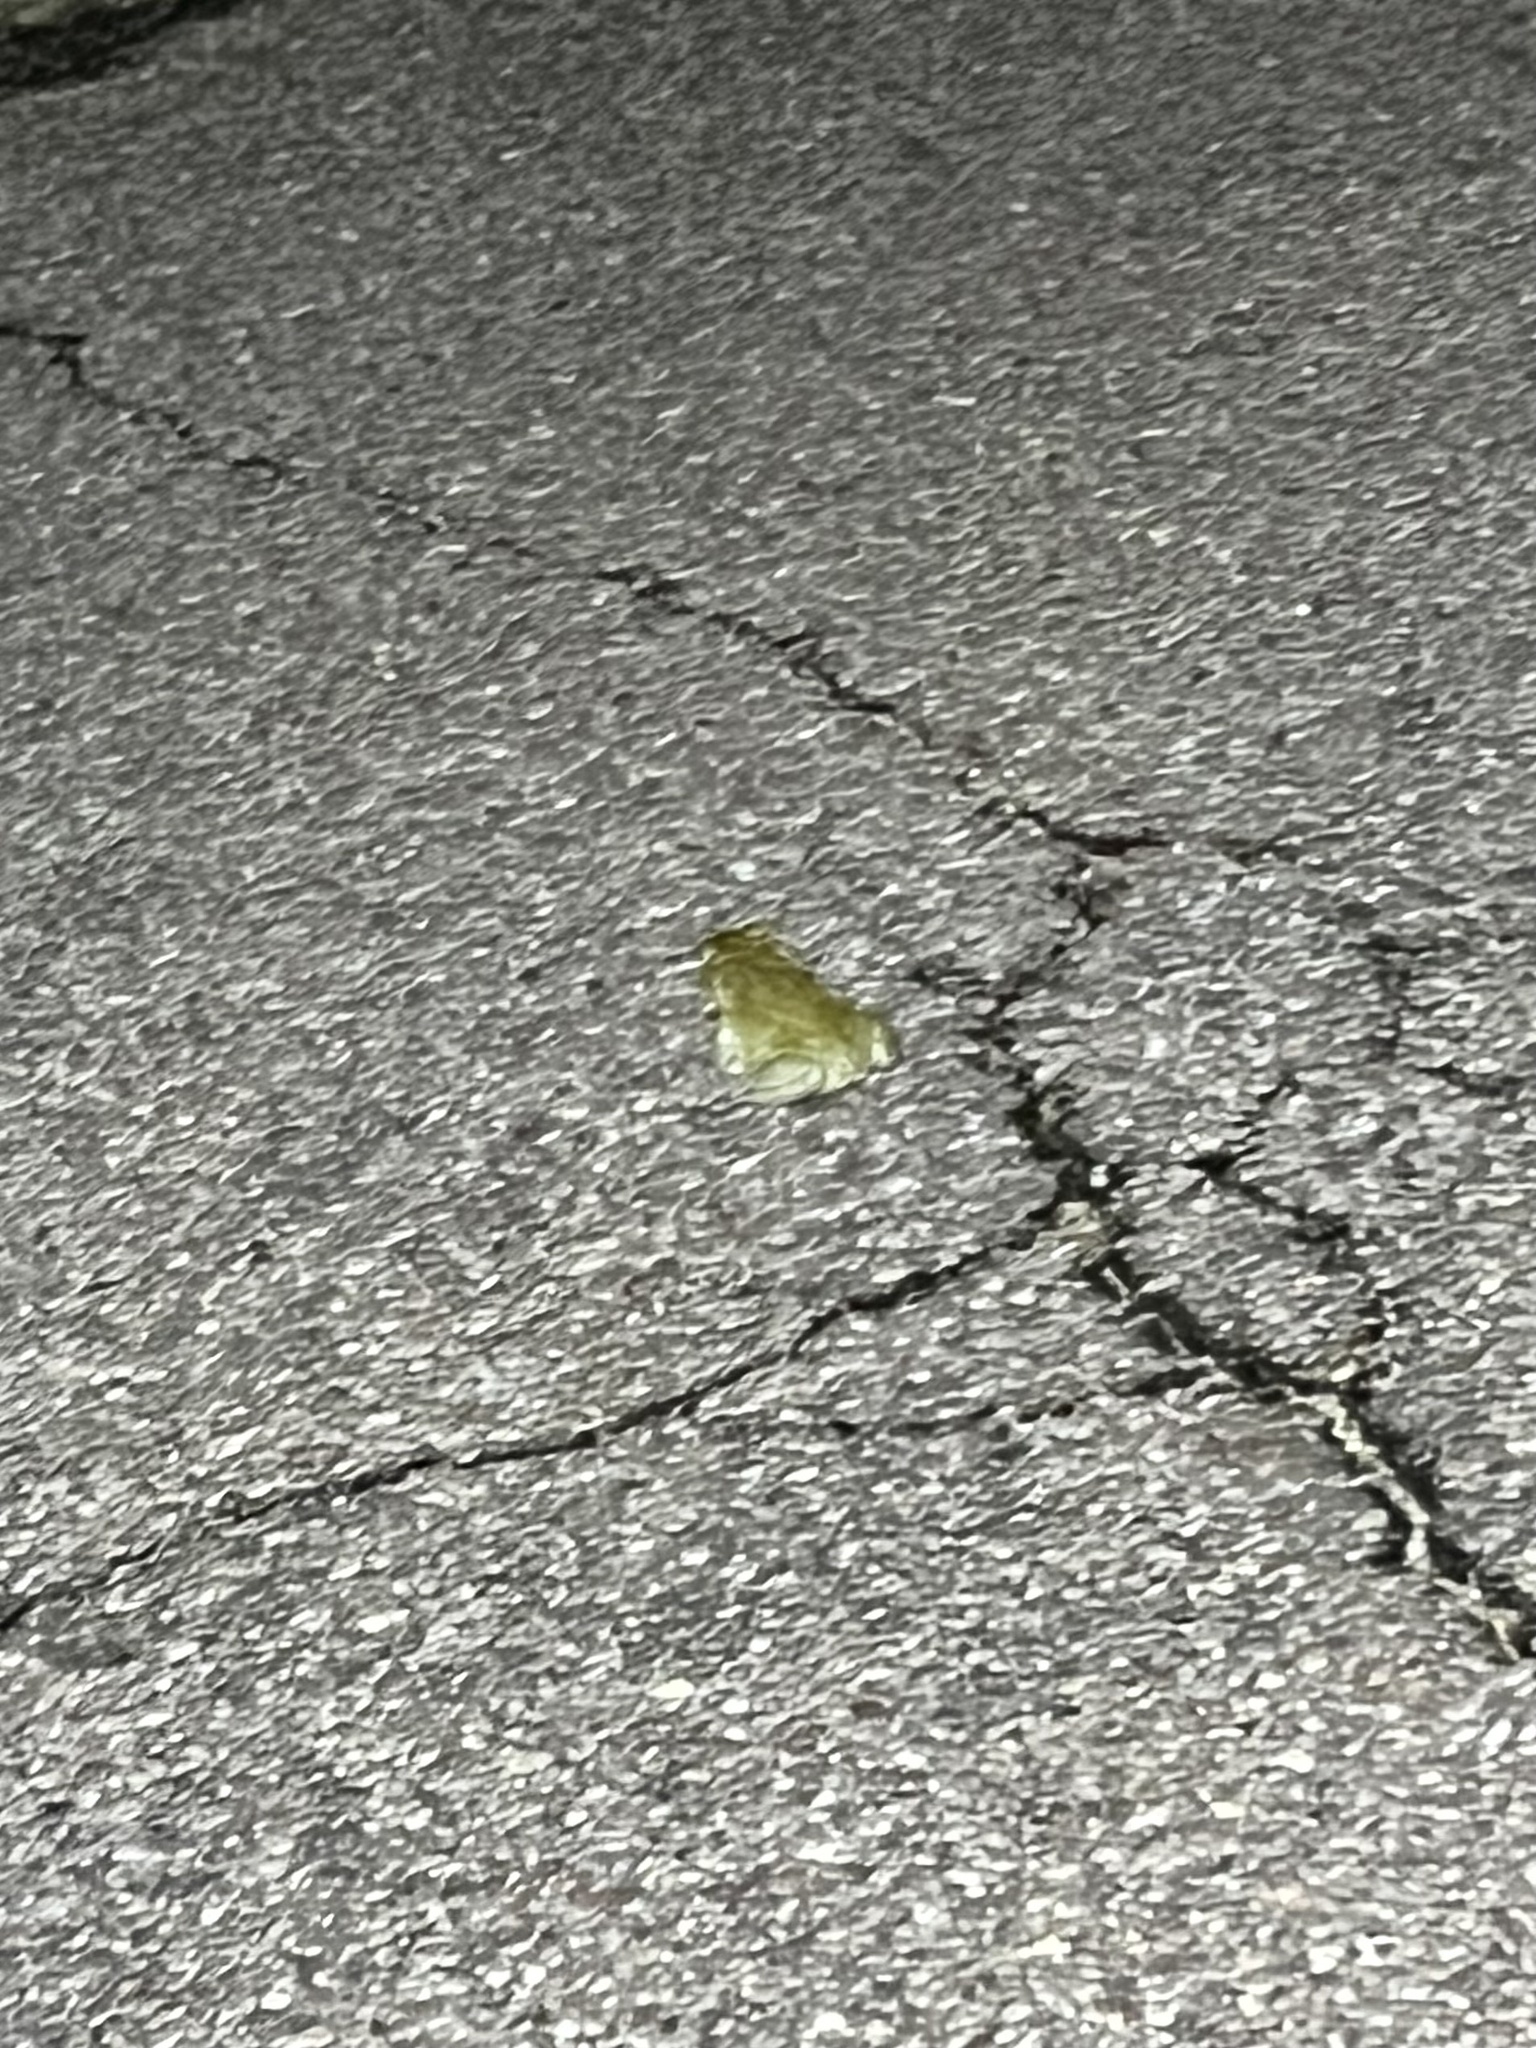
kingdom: Animalia
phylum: Chordata
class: Amphibia
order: Anura
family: Bufonidae
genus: Incilius
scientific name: Incilius alvarius
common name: Sonoran desert toad
